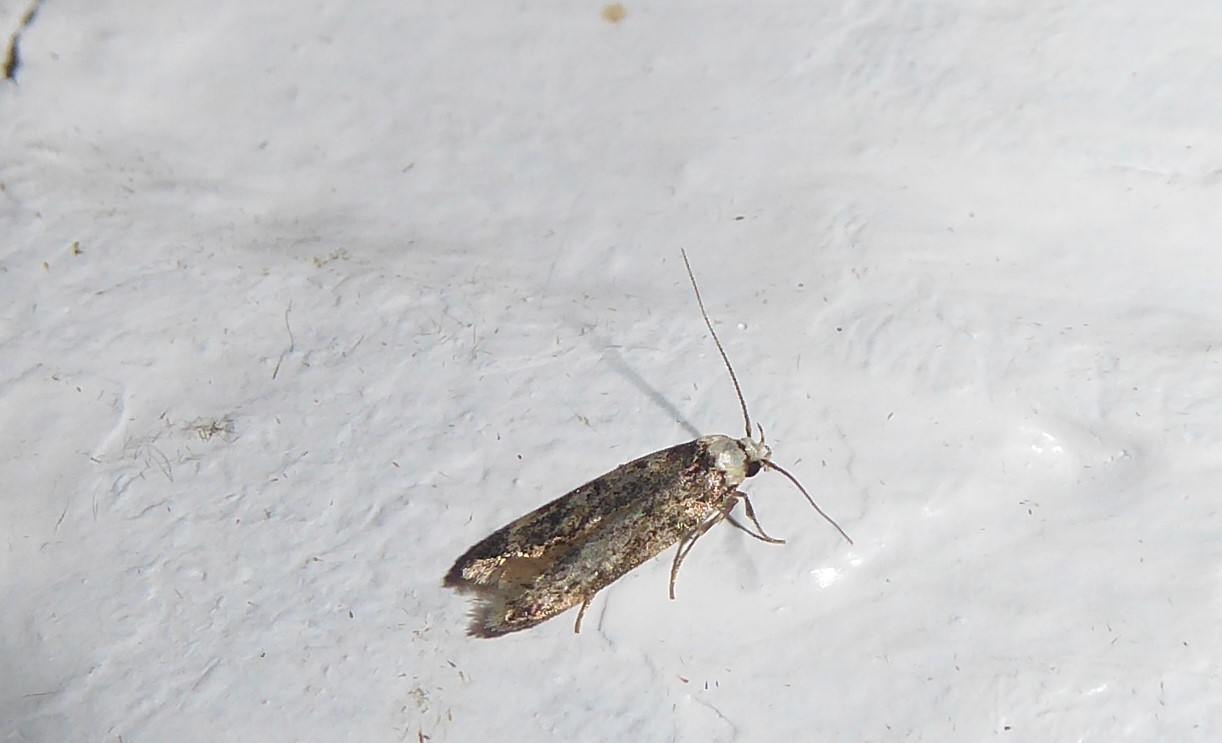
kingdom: Animalia
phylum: Arthropoda
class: Insecta
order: Lepidoptera
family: Oecophoridae
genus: Endrosis
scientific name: Endrosis sarcitrella
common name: White-shouldered house moth
